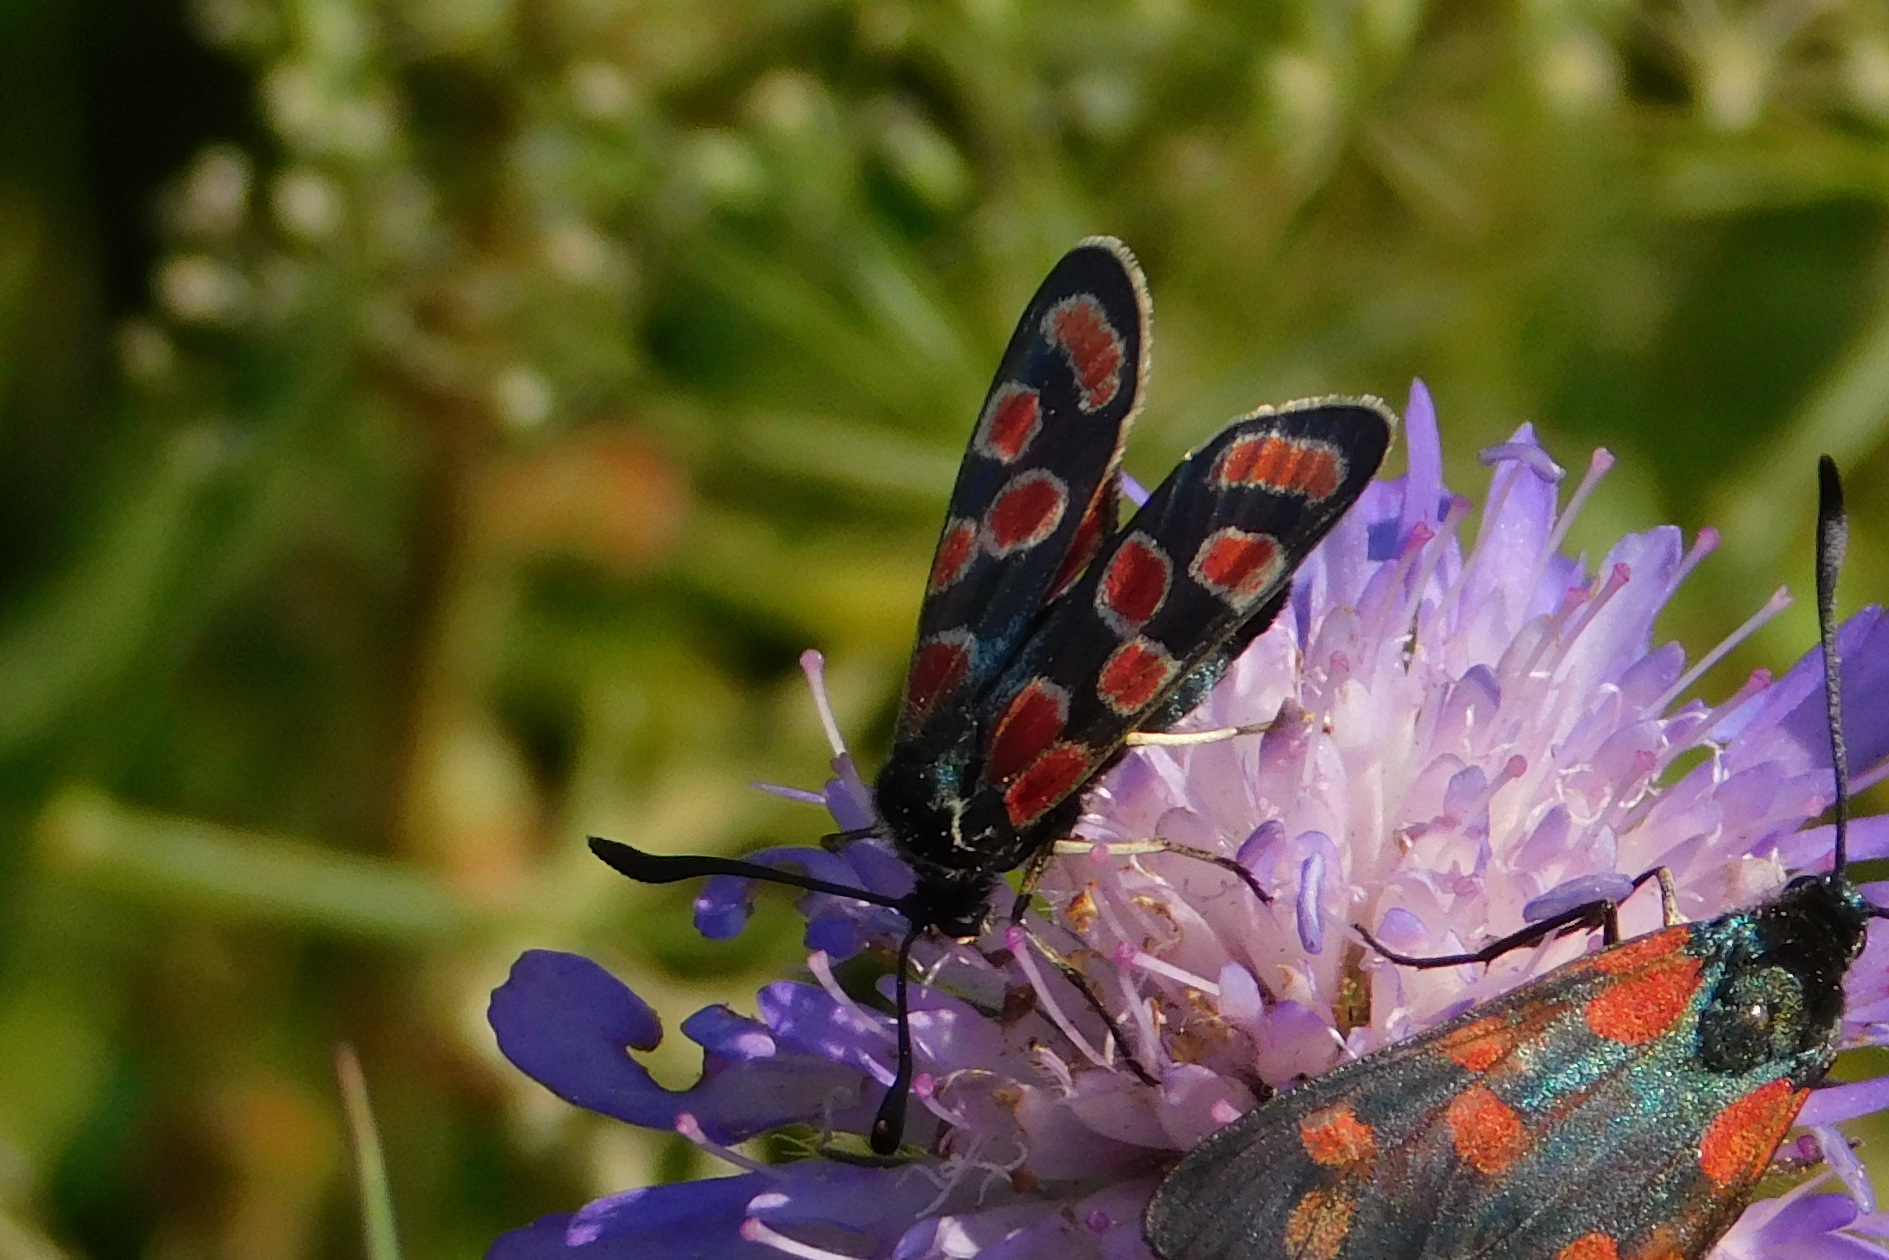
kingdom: Animalia
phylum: Arthropoda
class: Insecta
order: Lepidoptera
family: Zygaenidae
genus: Zygaena
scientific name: Zygaena carniolica
